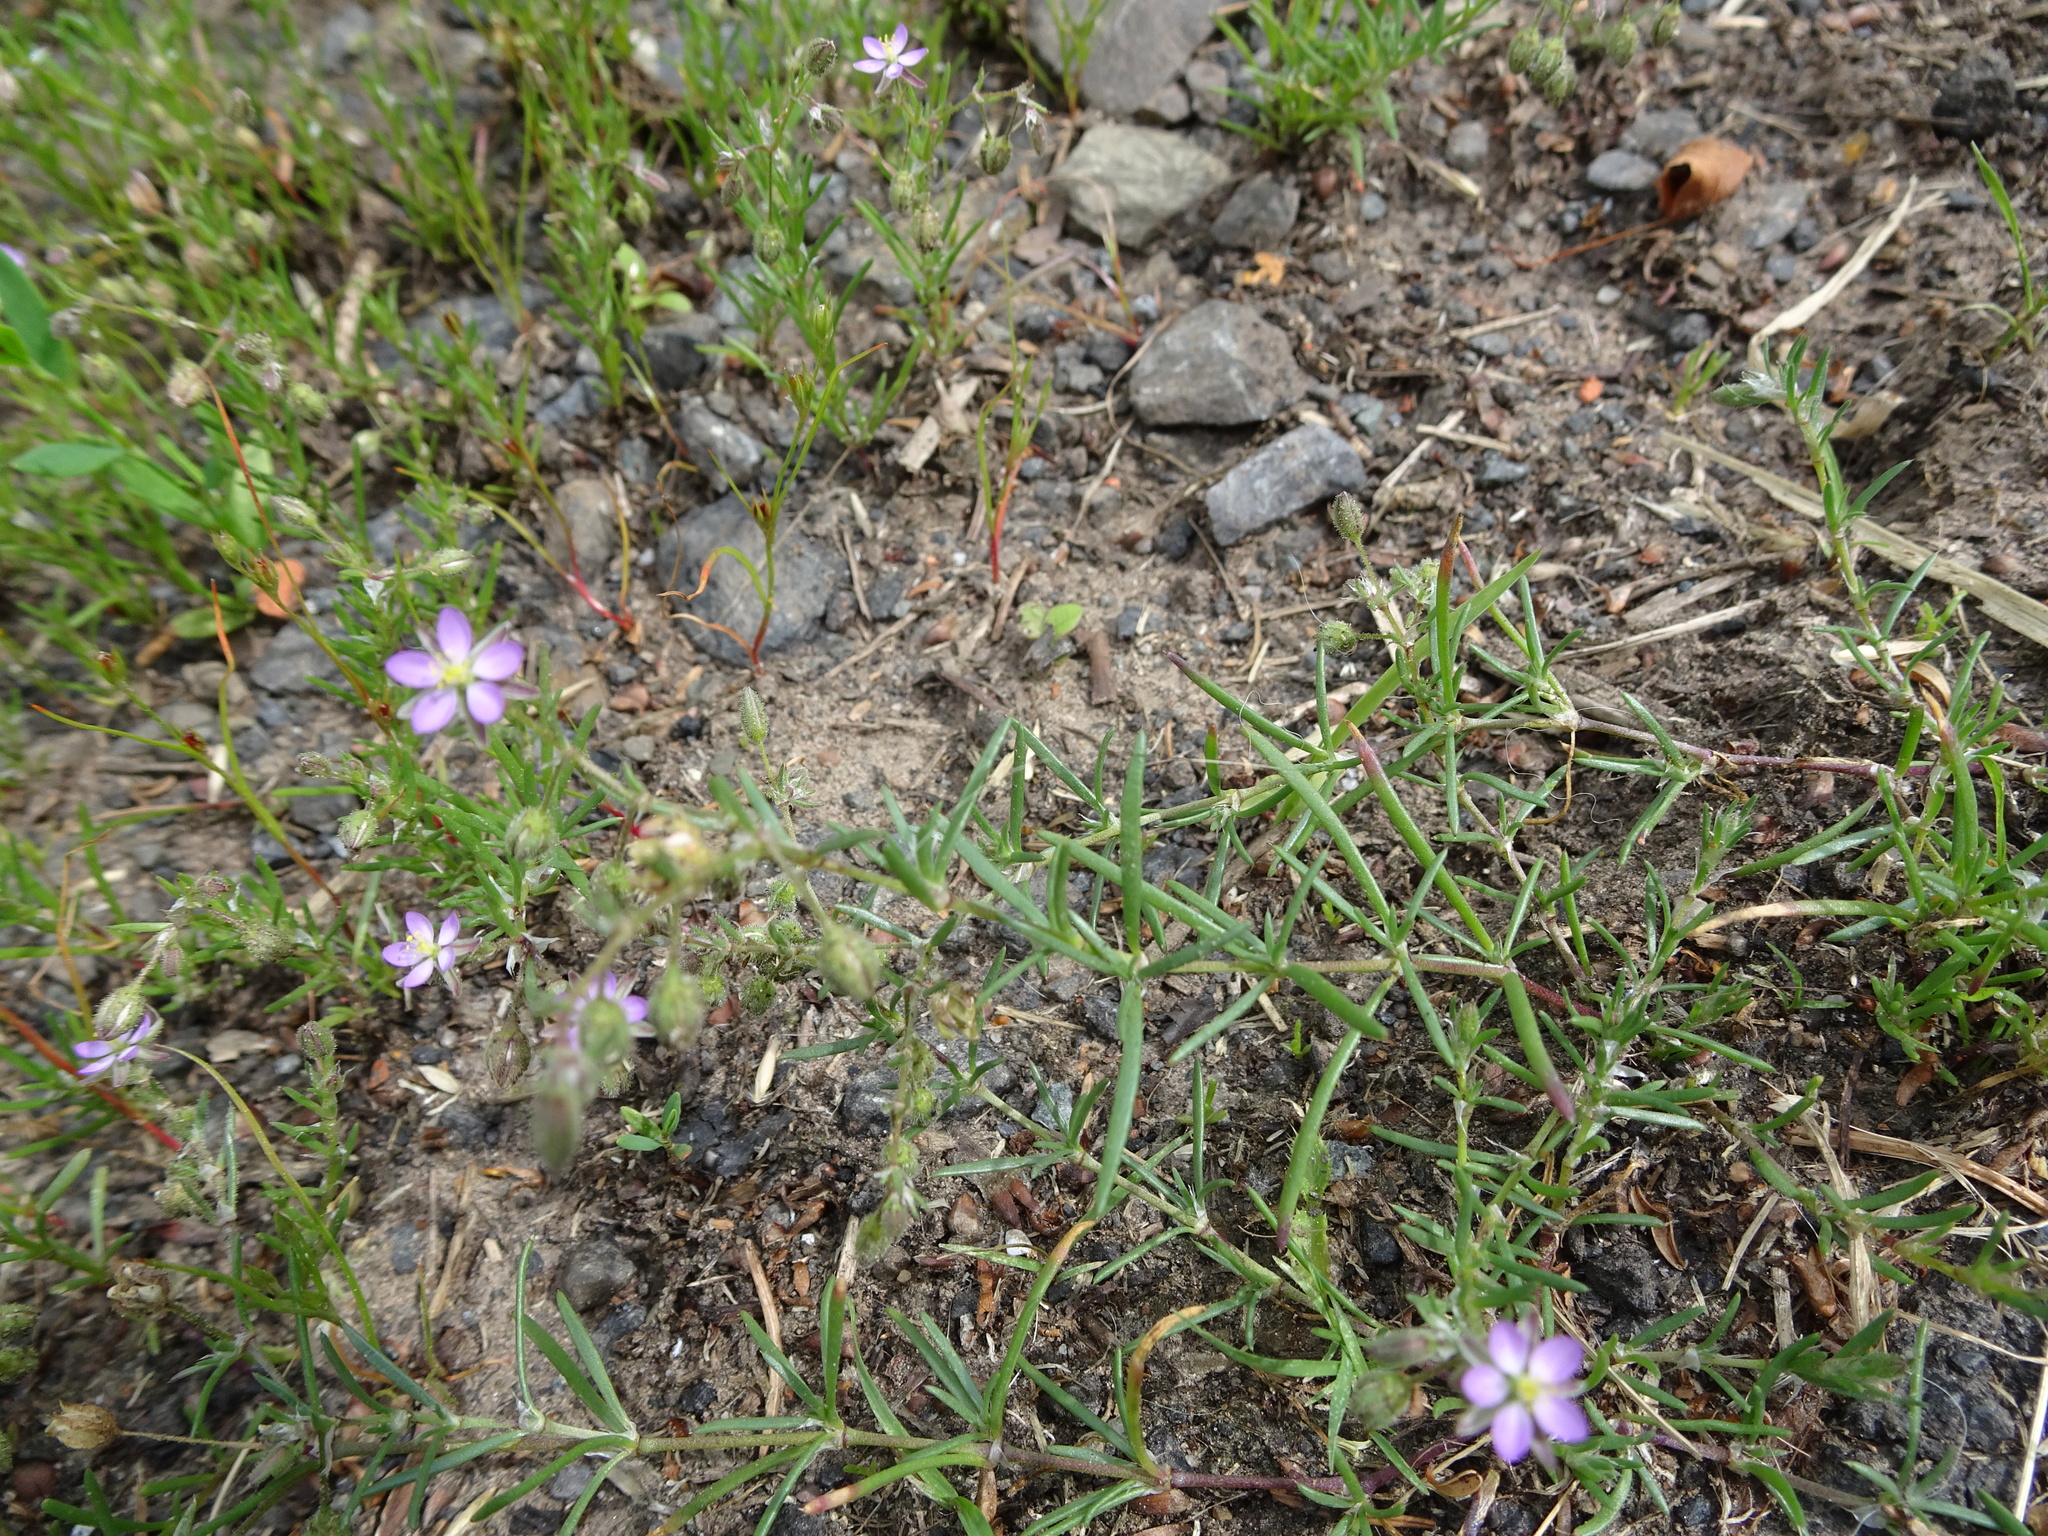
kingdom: Plantae
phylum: Tracheophyta
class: Magnoliopsida
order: Caryophyllales
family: Caryophyllaceae
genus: Spergularia
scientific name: Spergularia rubra
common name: Red sand-spurrey
